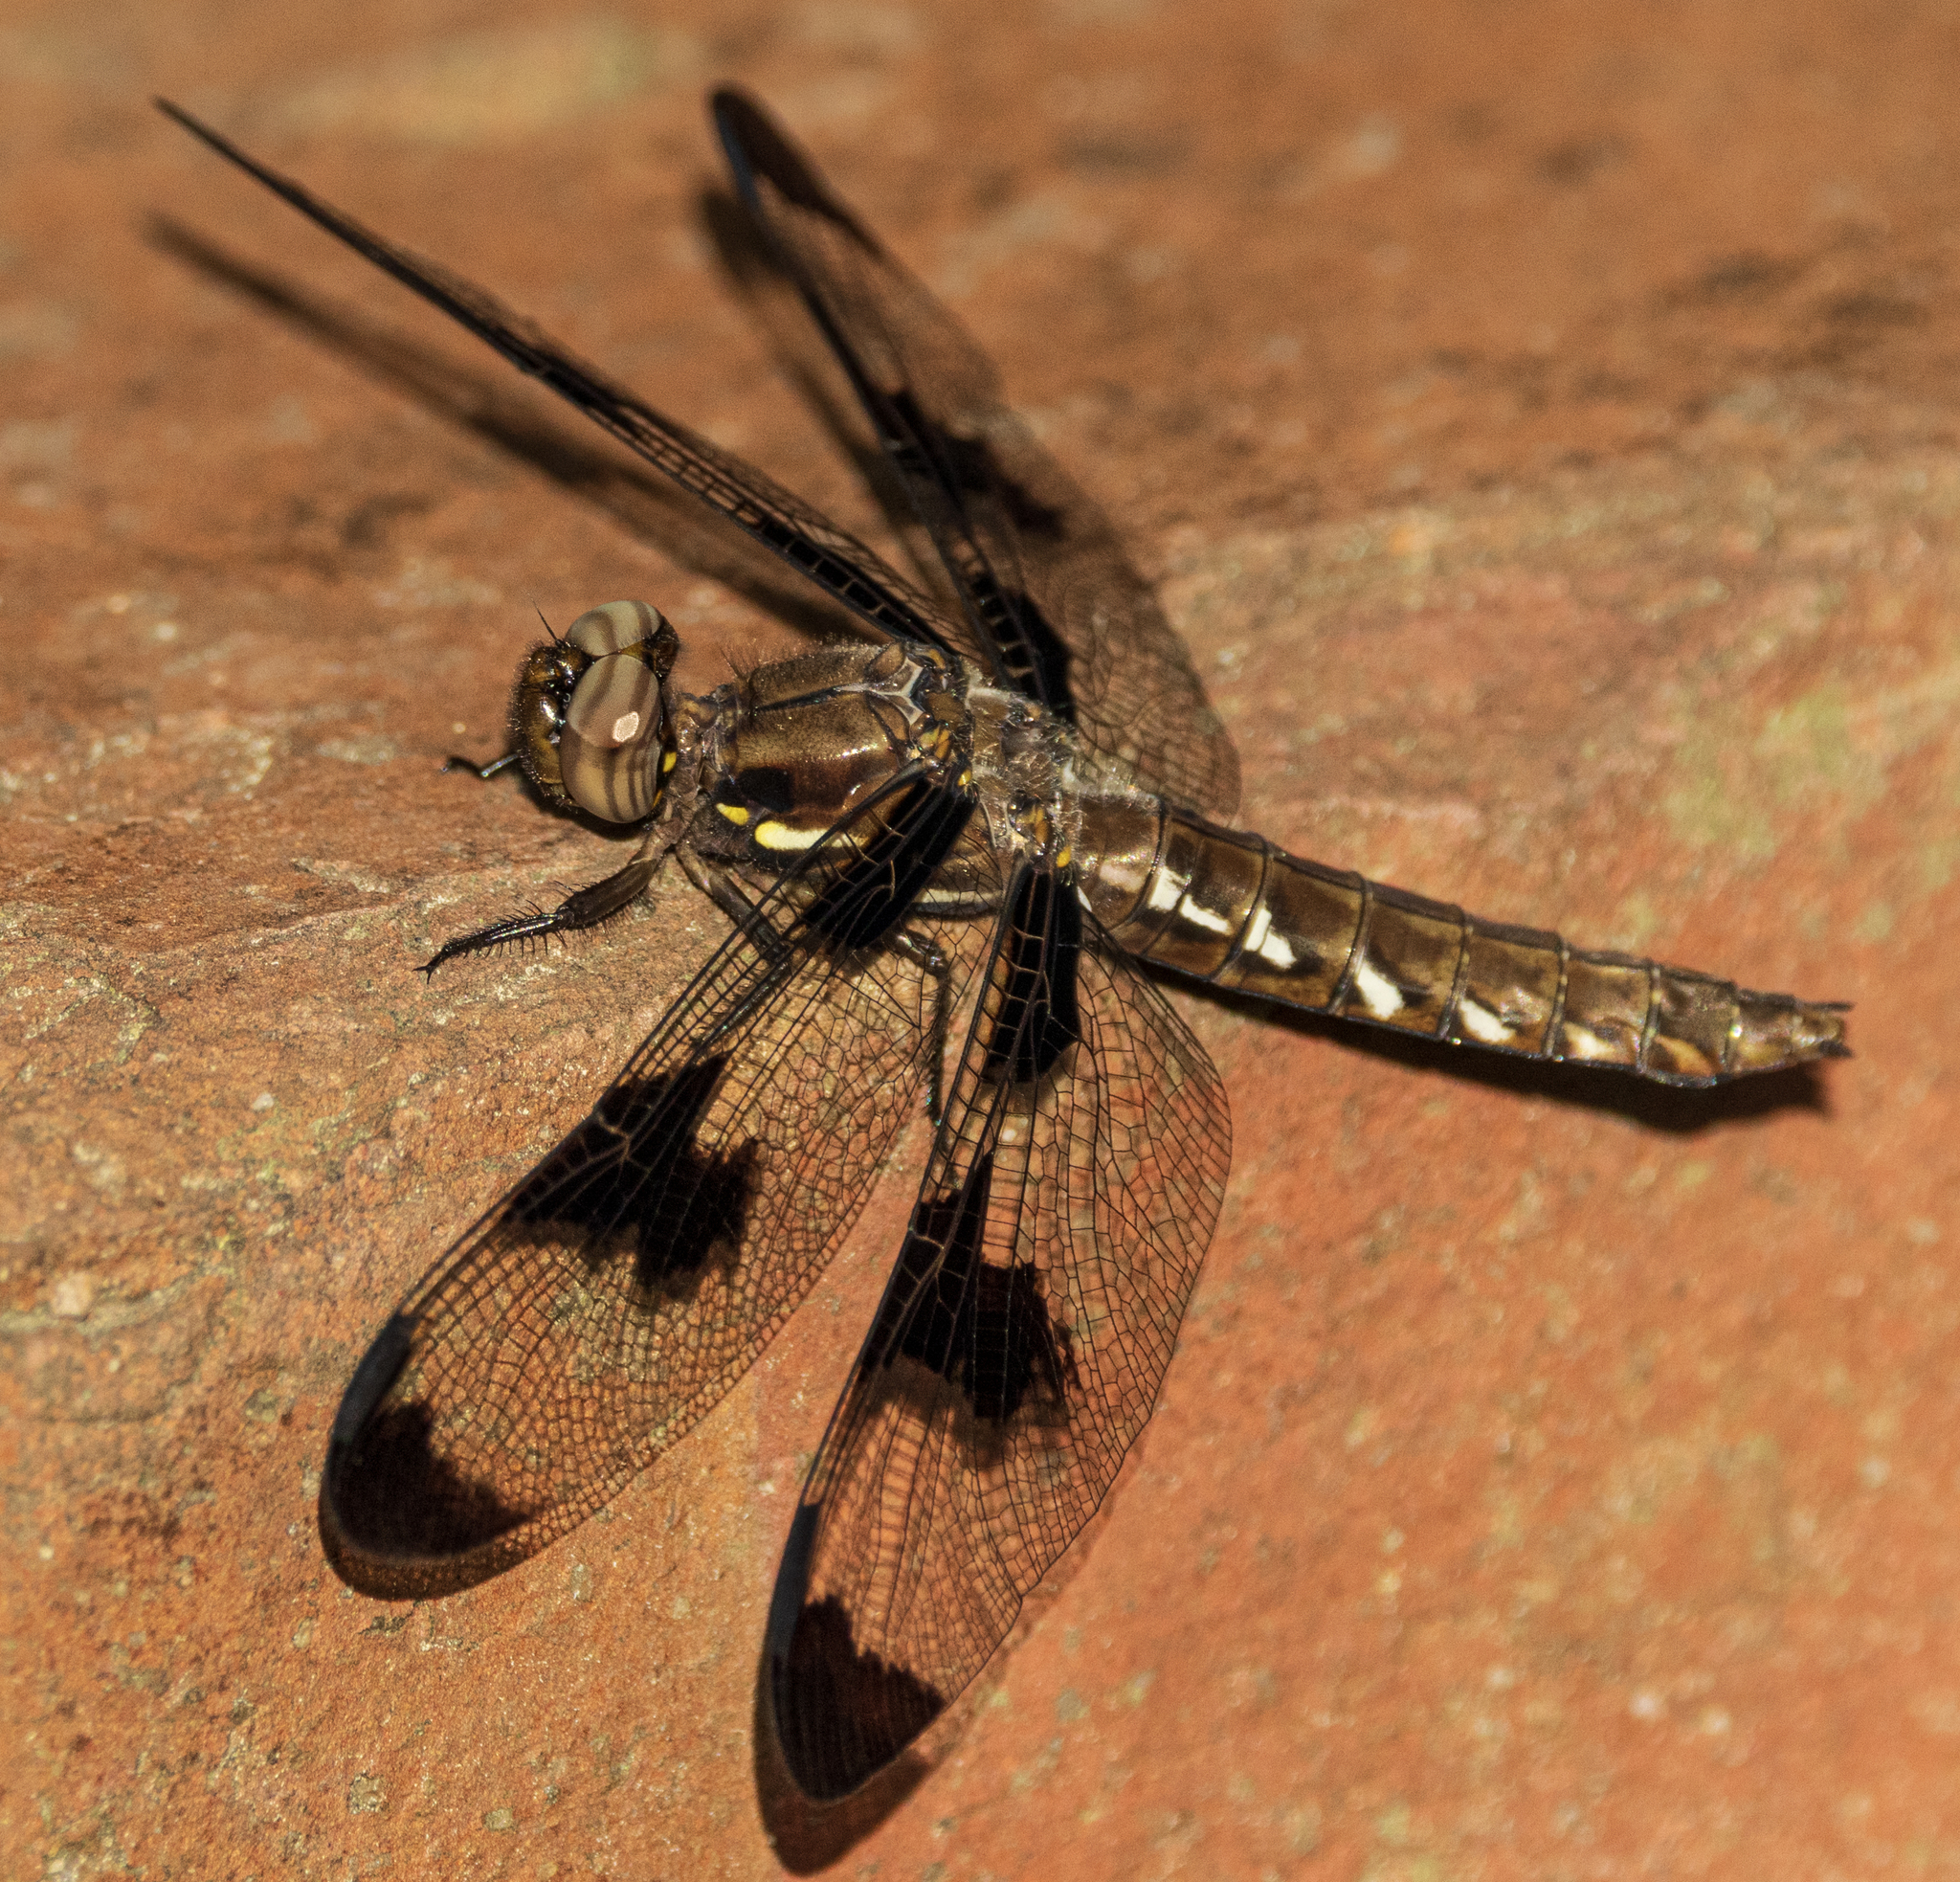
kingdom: Animalia
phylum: Arthropoda
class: Insecta
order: Odonata
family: Libellulidae
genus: Plathemis
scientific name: Plathemis lydia
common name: Common whitetail
